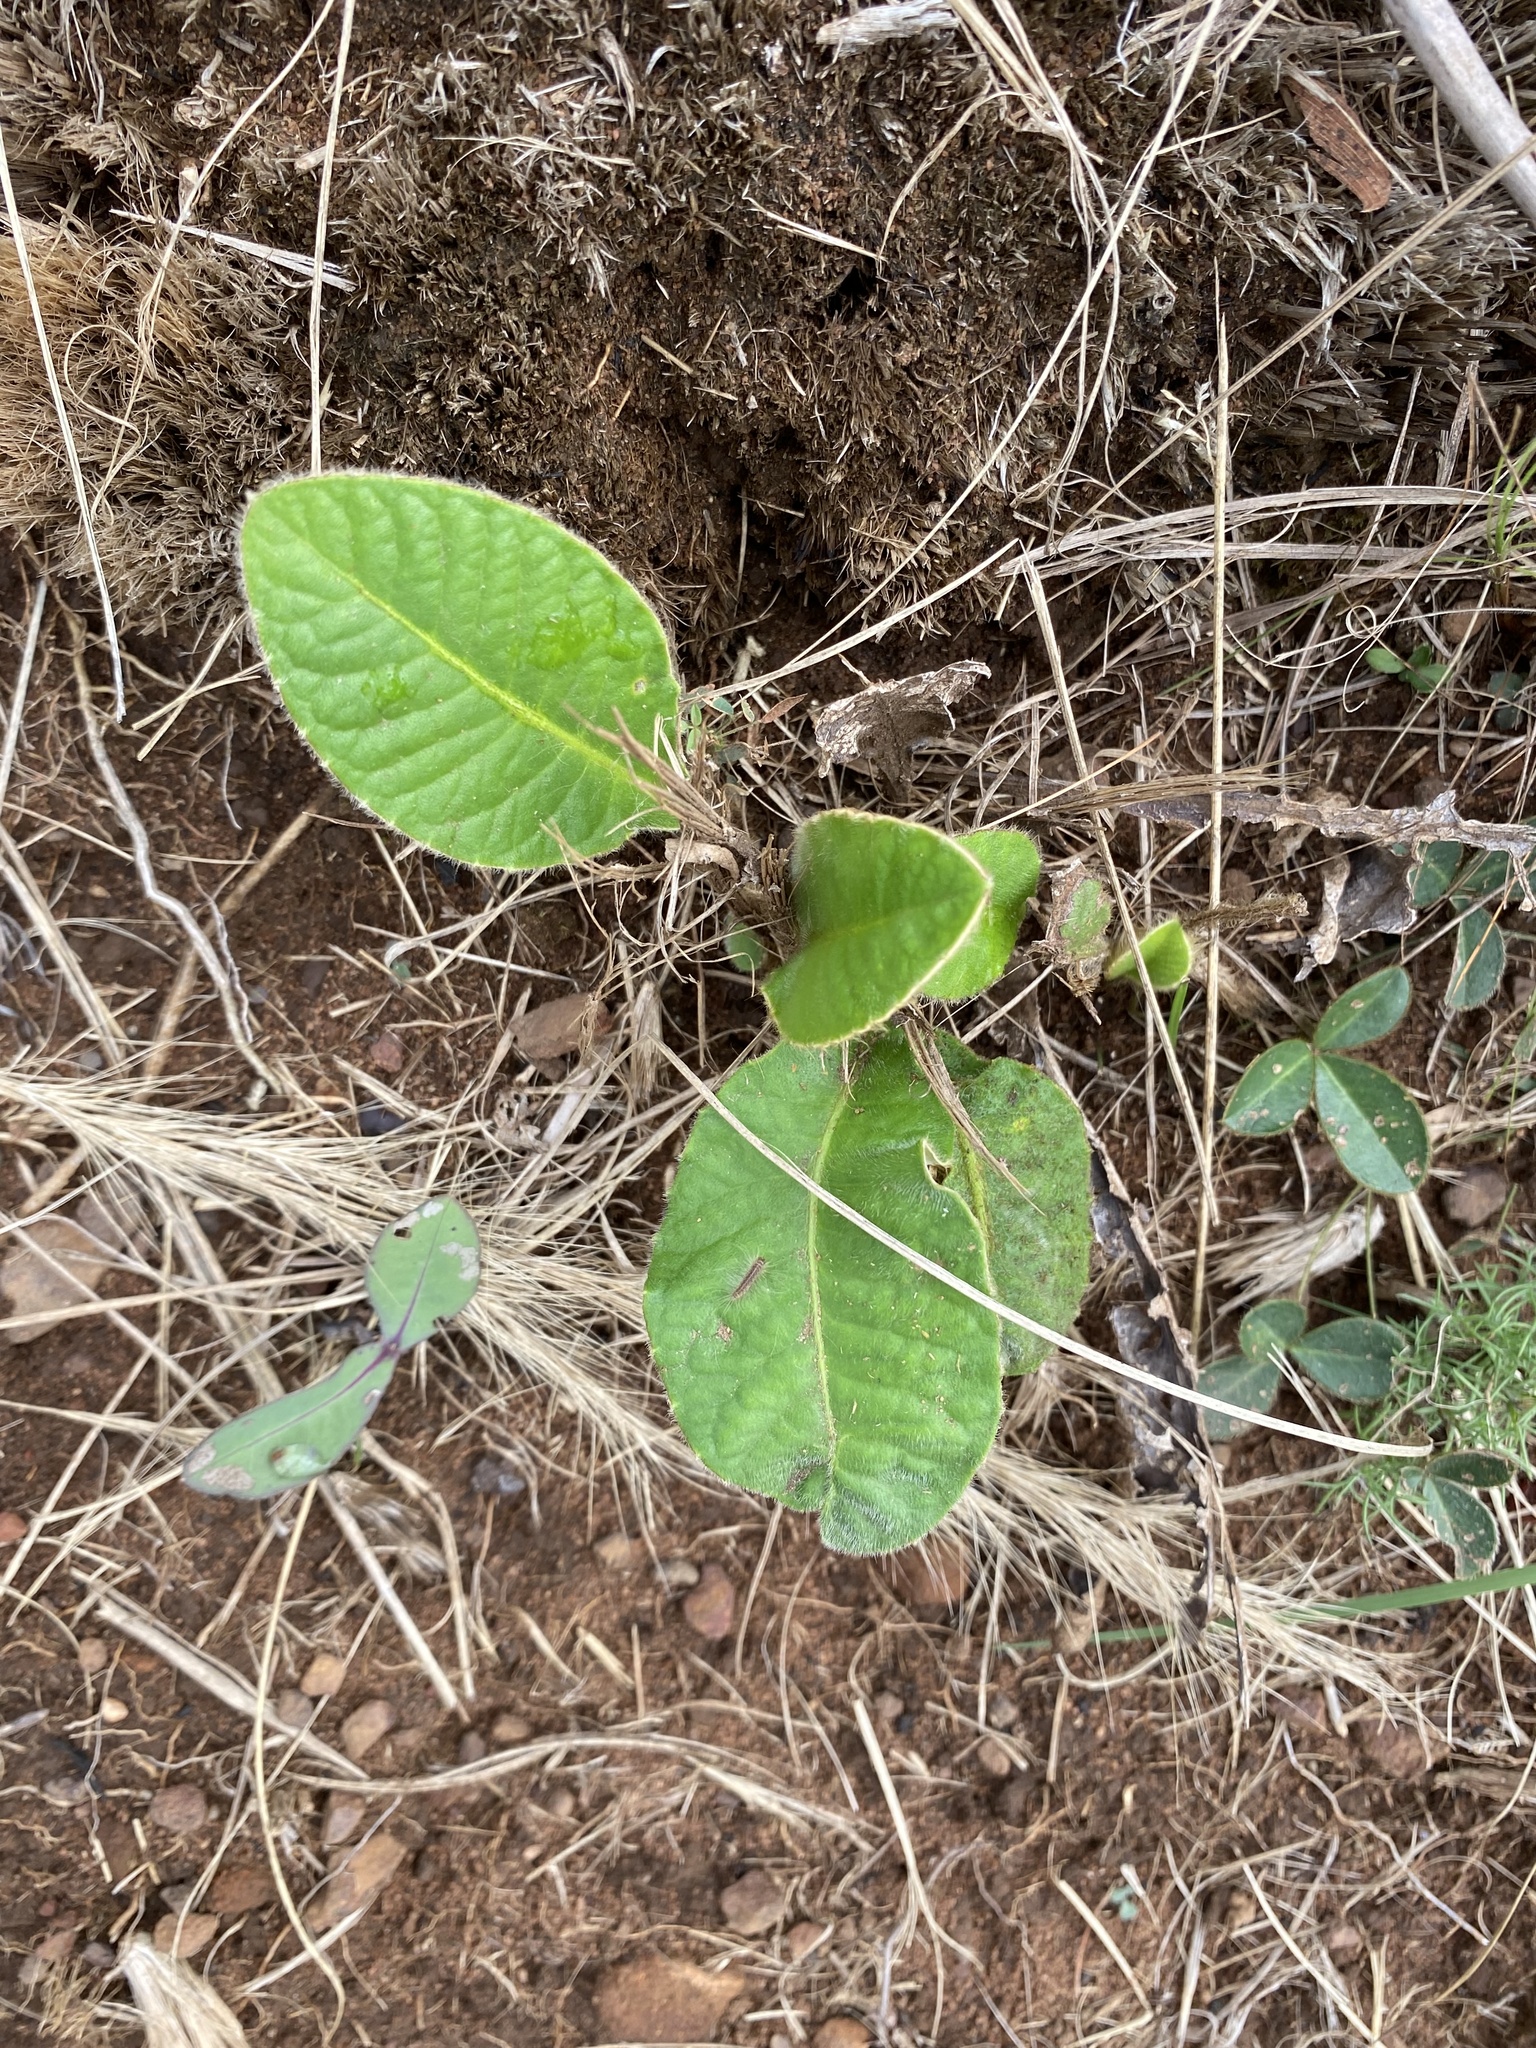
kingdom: Plantae
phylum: Tracheophyta
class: Magnoliopsida
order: Asterales
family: Asteraceae
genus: Gerbera
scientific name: Gerbera ambigua
